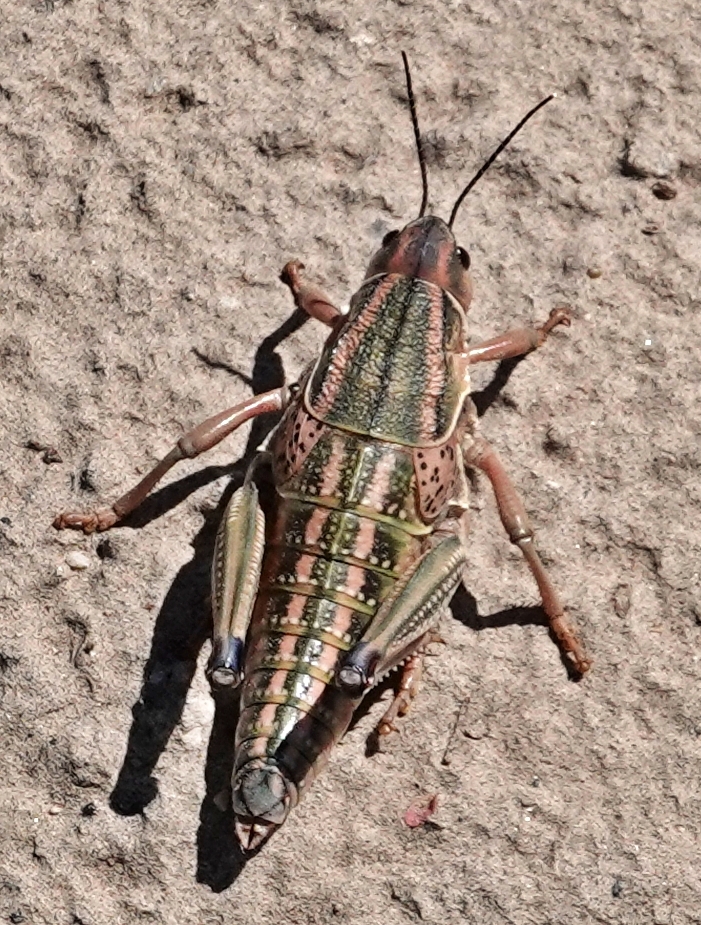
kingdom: Animalia
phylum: Arthropoda
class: Insecta
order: Orthoptera
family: Romaleidae
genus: Brachystola
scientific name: Brachystola magna
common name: Plains lubber grasshopper
